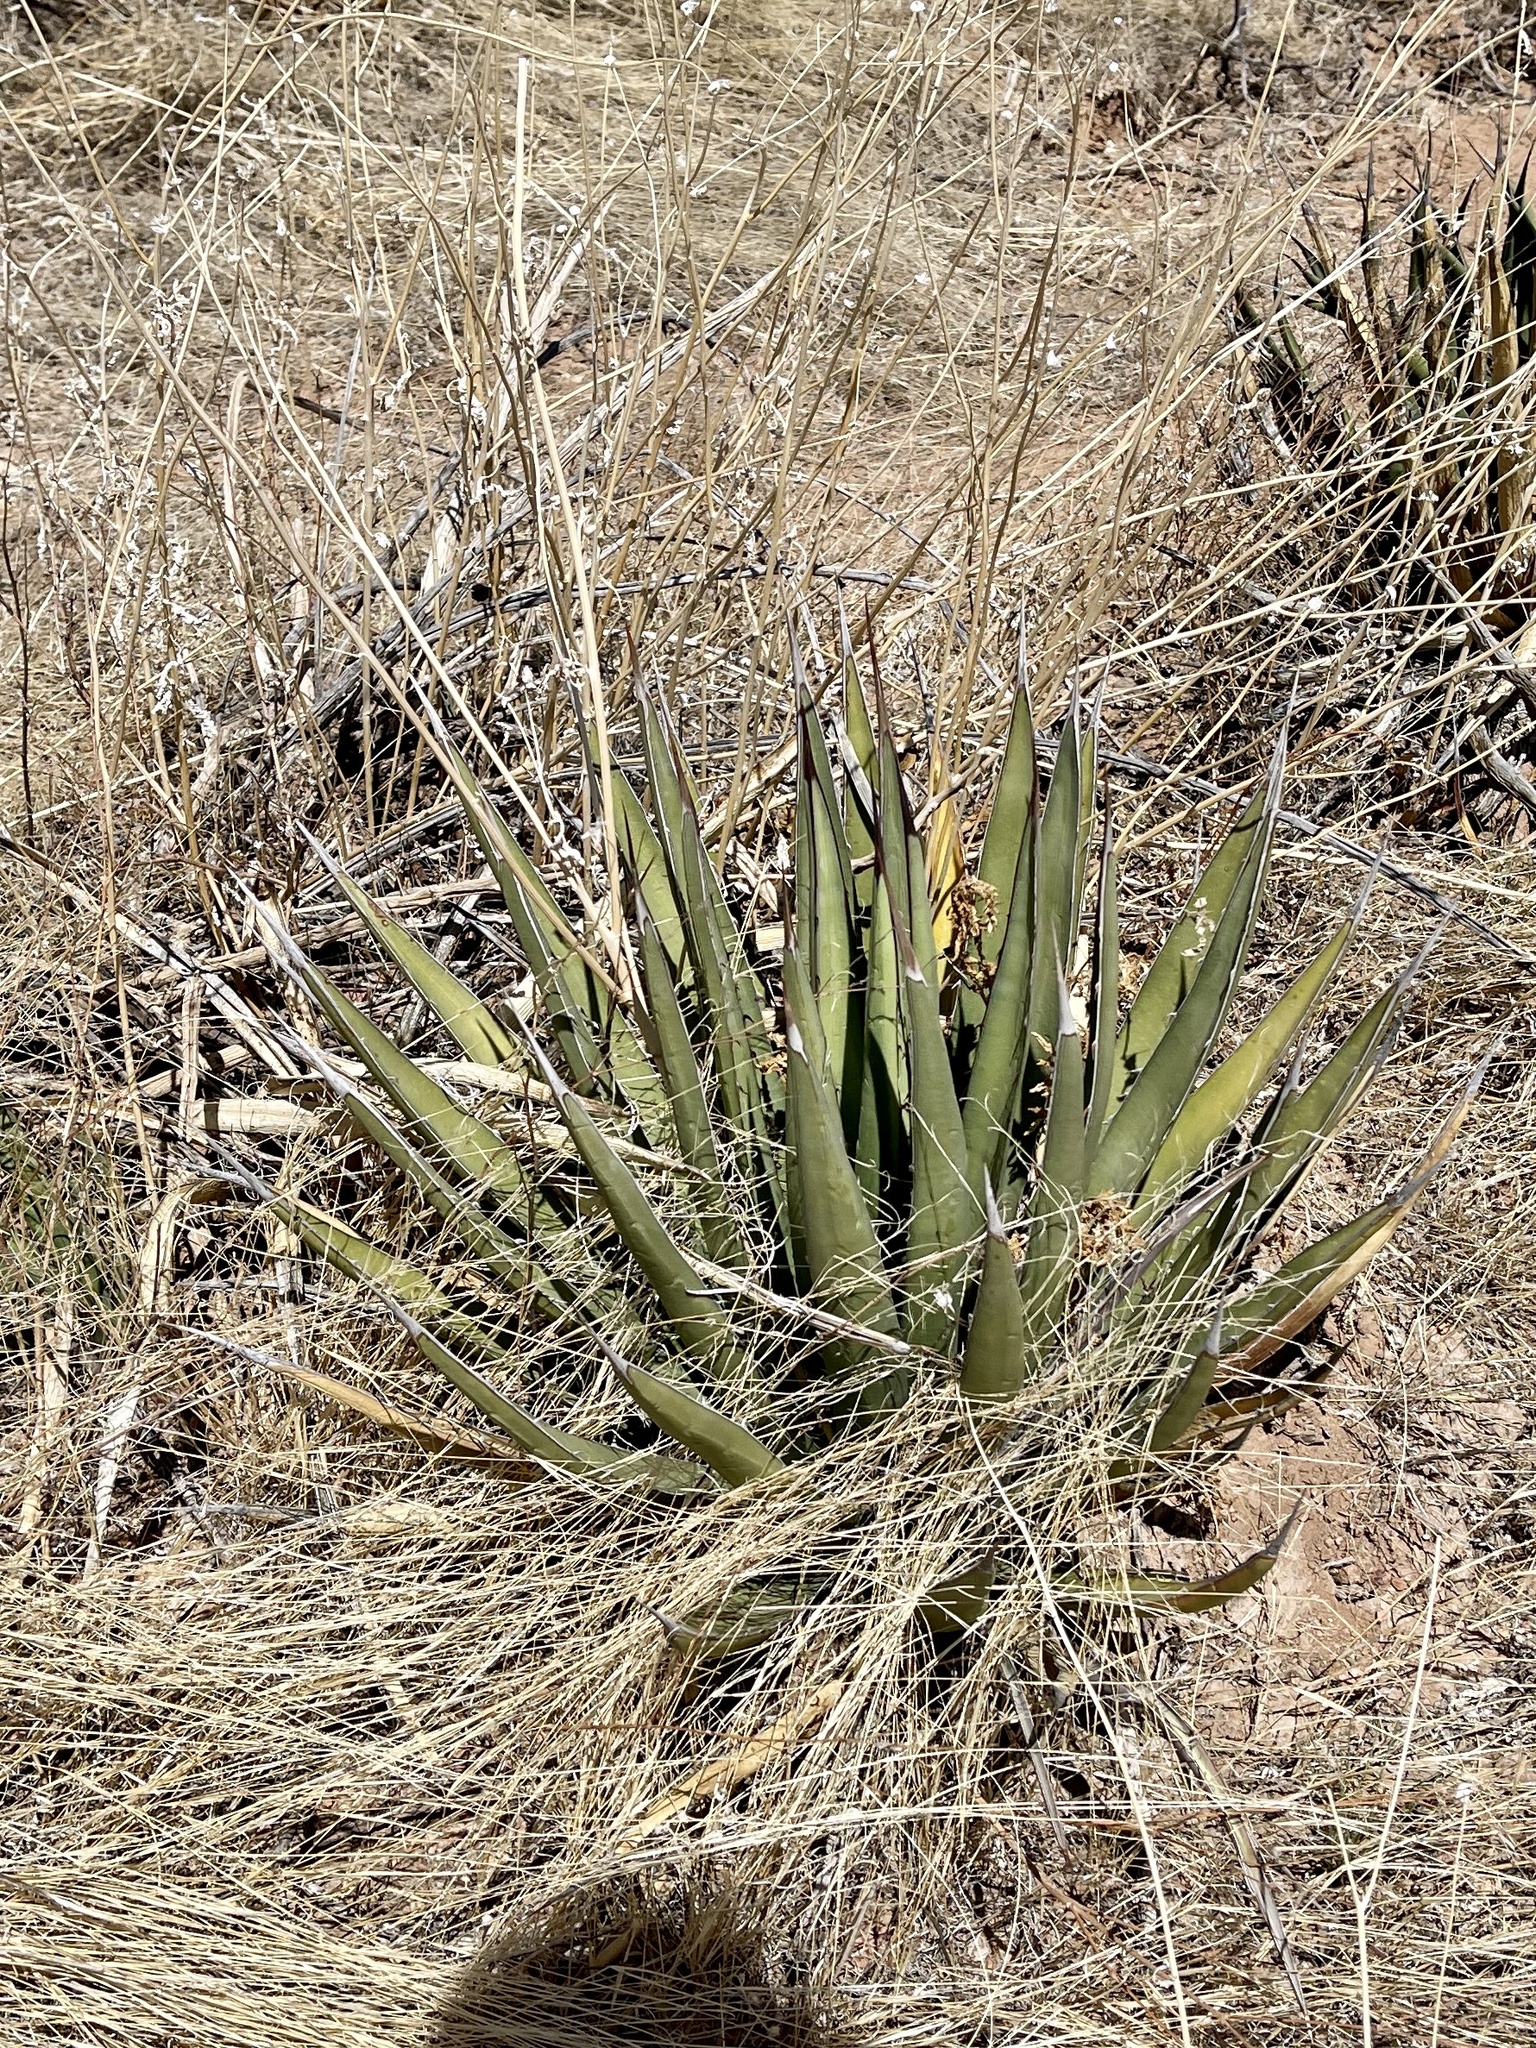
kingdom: Plantae
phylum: Tracheophyta
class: Liliopsida
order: Asparagales
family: Asparagaceae
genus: Agave
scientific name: Agave lechuguilla
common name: Lecheguilla agave
